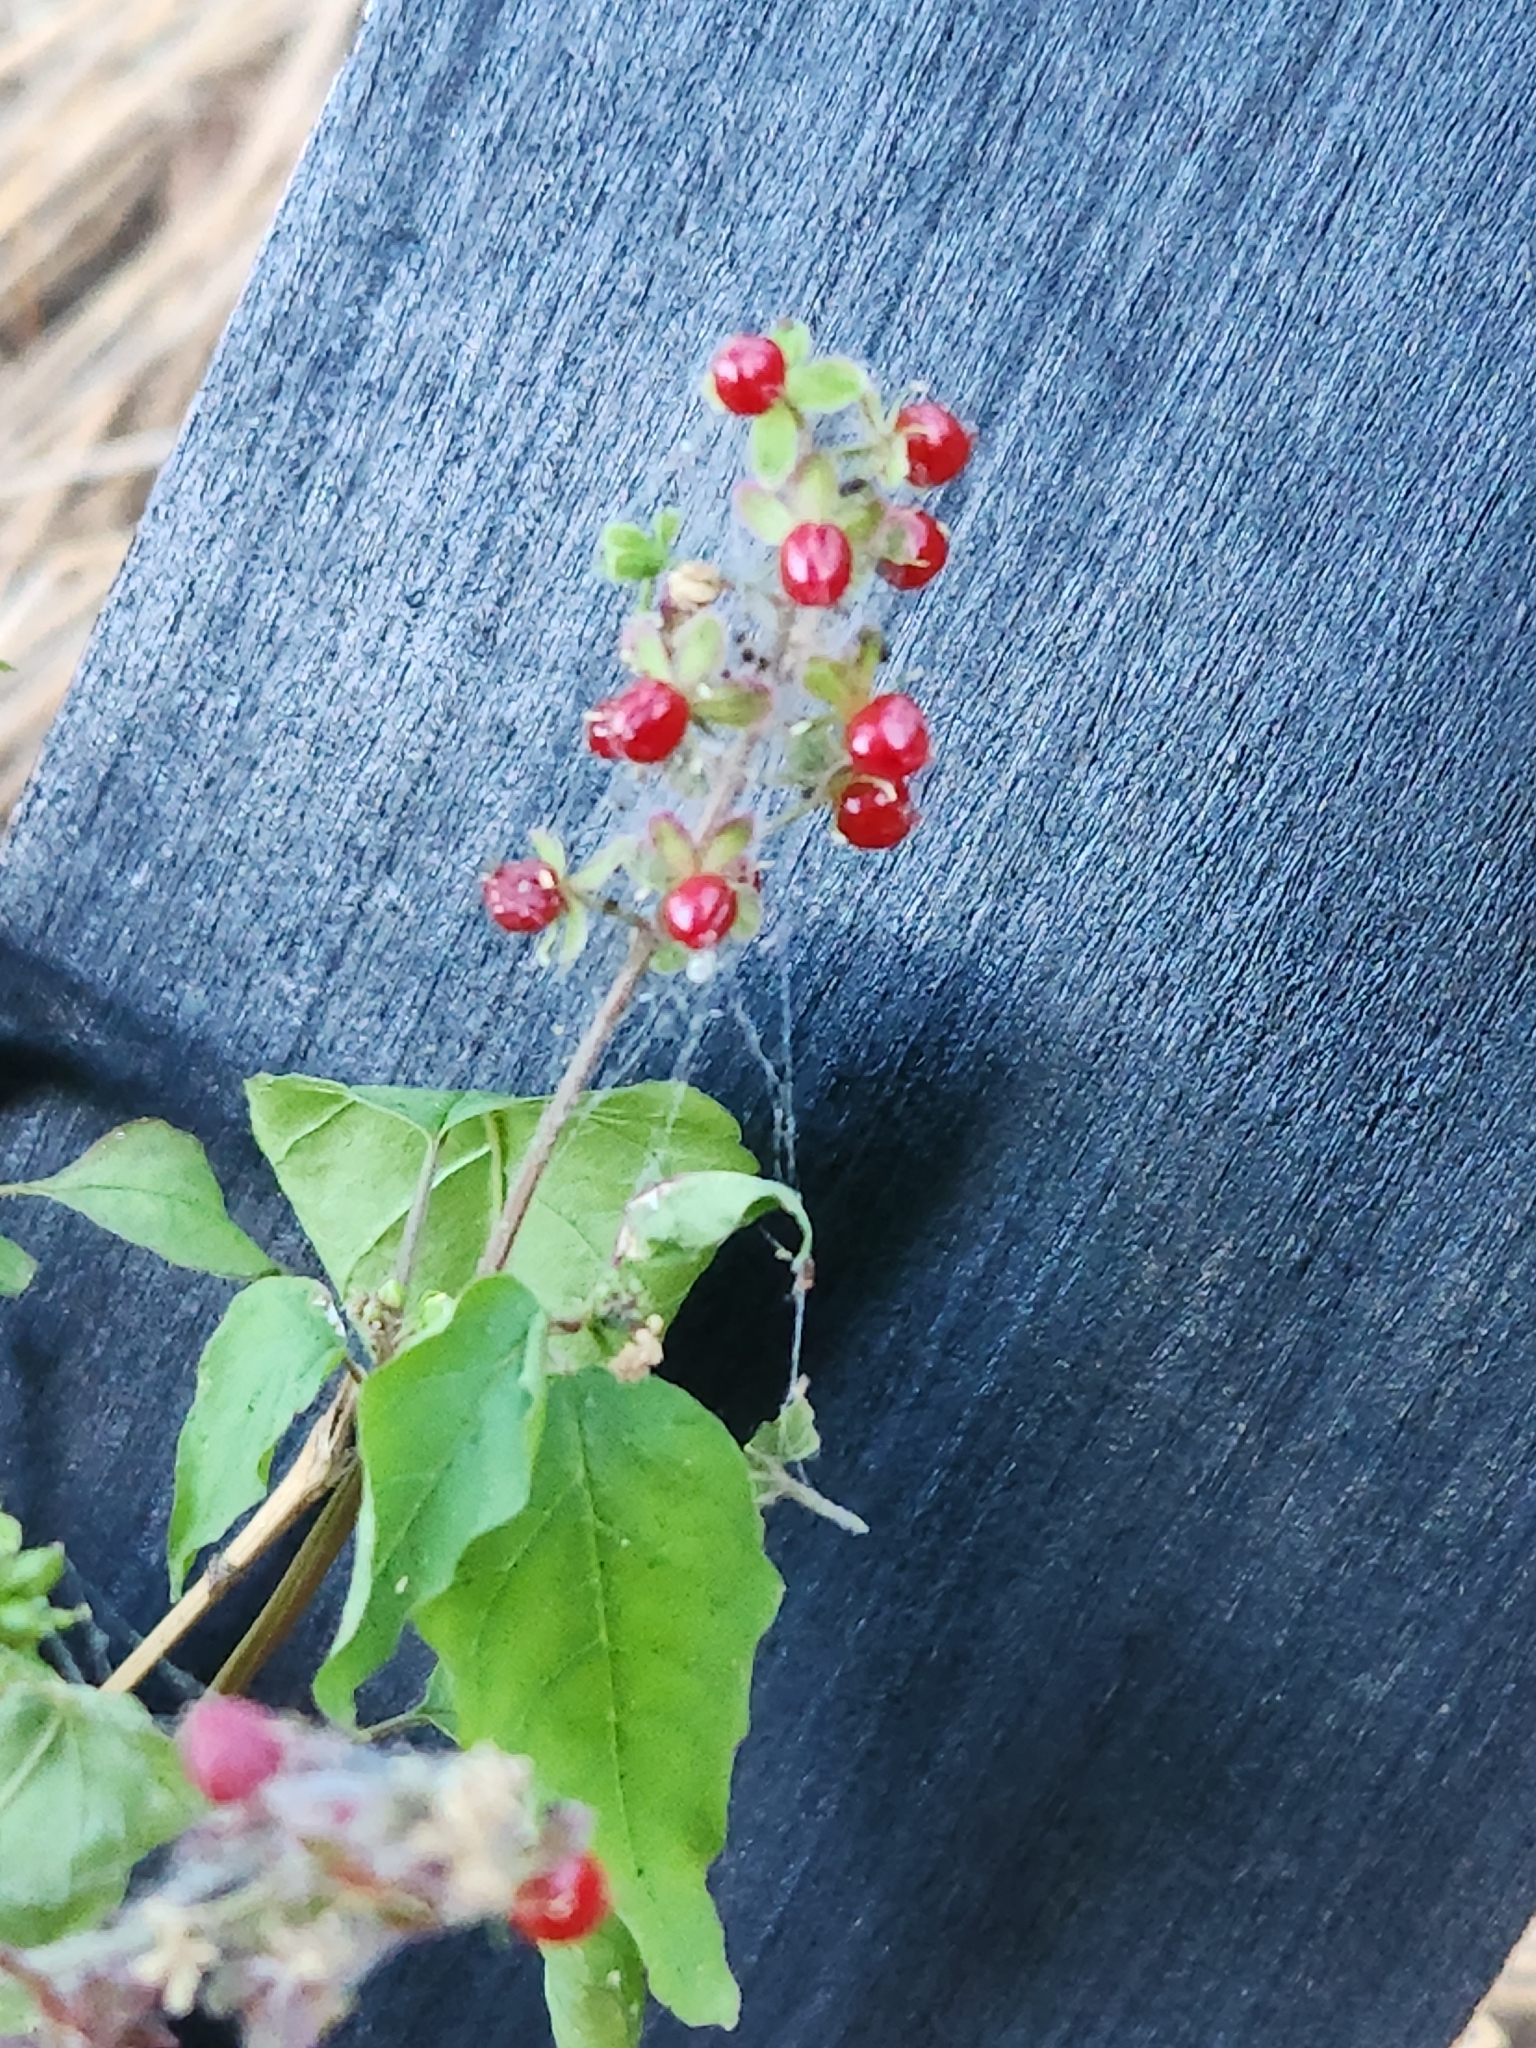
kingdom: Plantae
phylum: Tracheophyta
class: Magnoliopsida
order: Caryophyllales
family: Phytolaccaceae
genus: Rivina
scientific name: Rivina humilis
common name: Rougeplant
